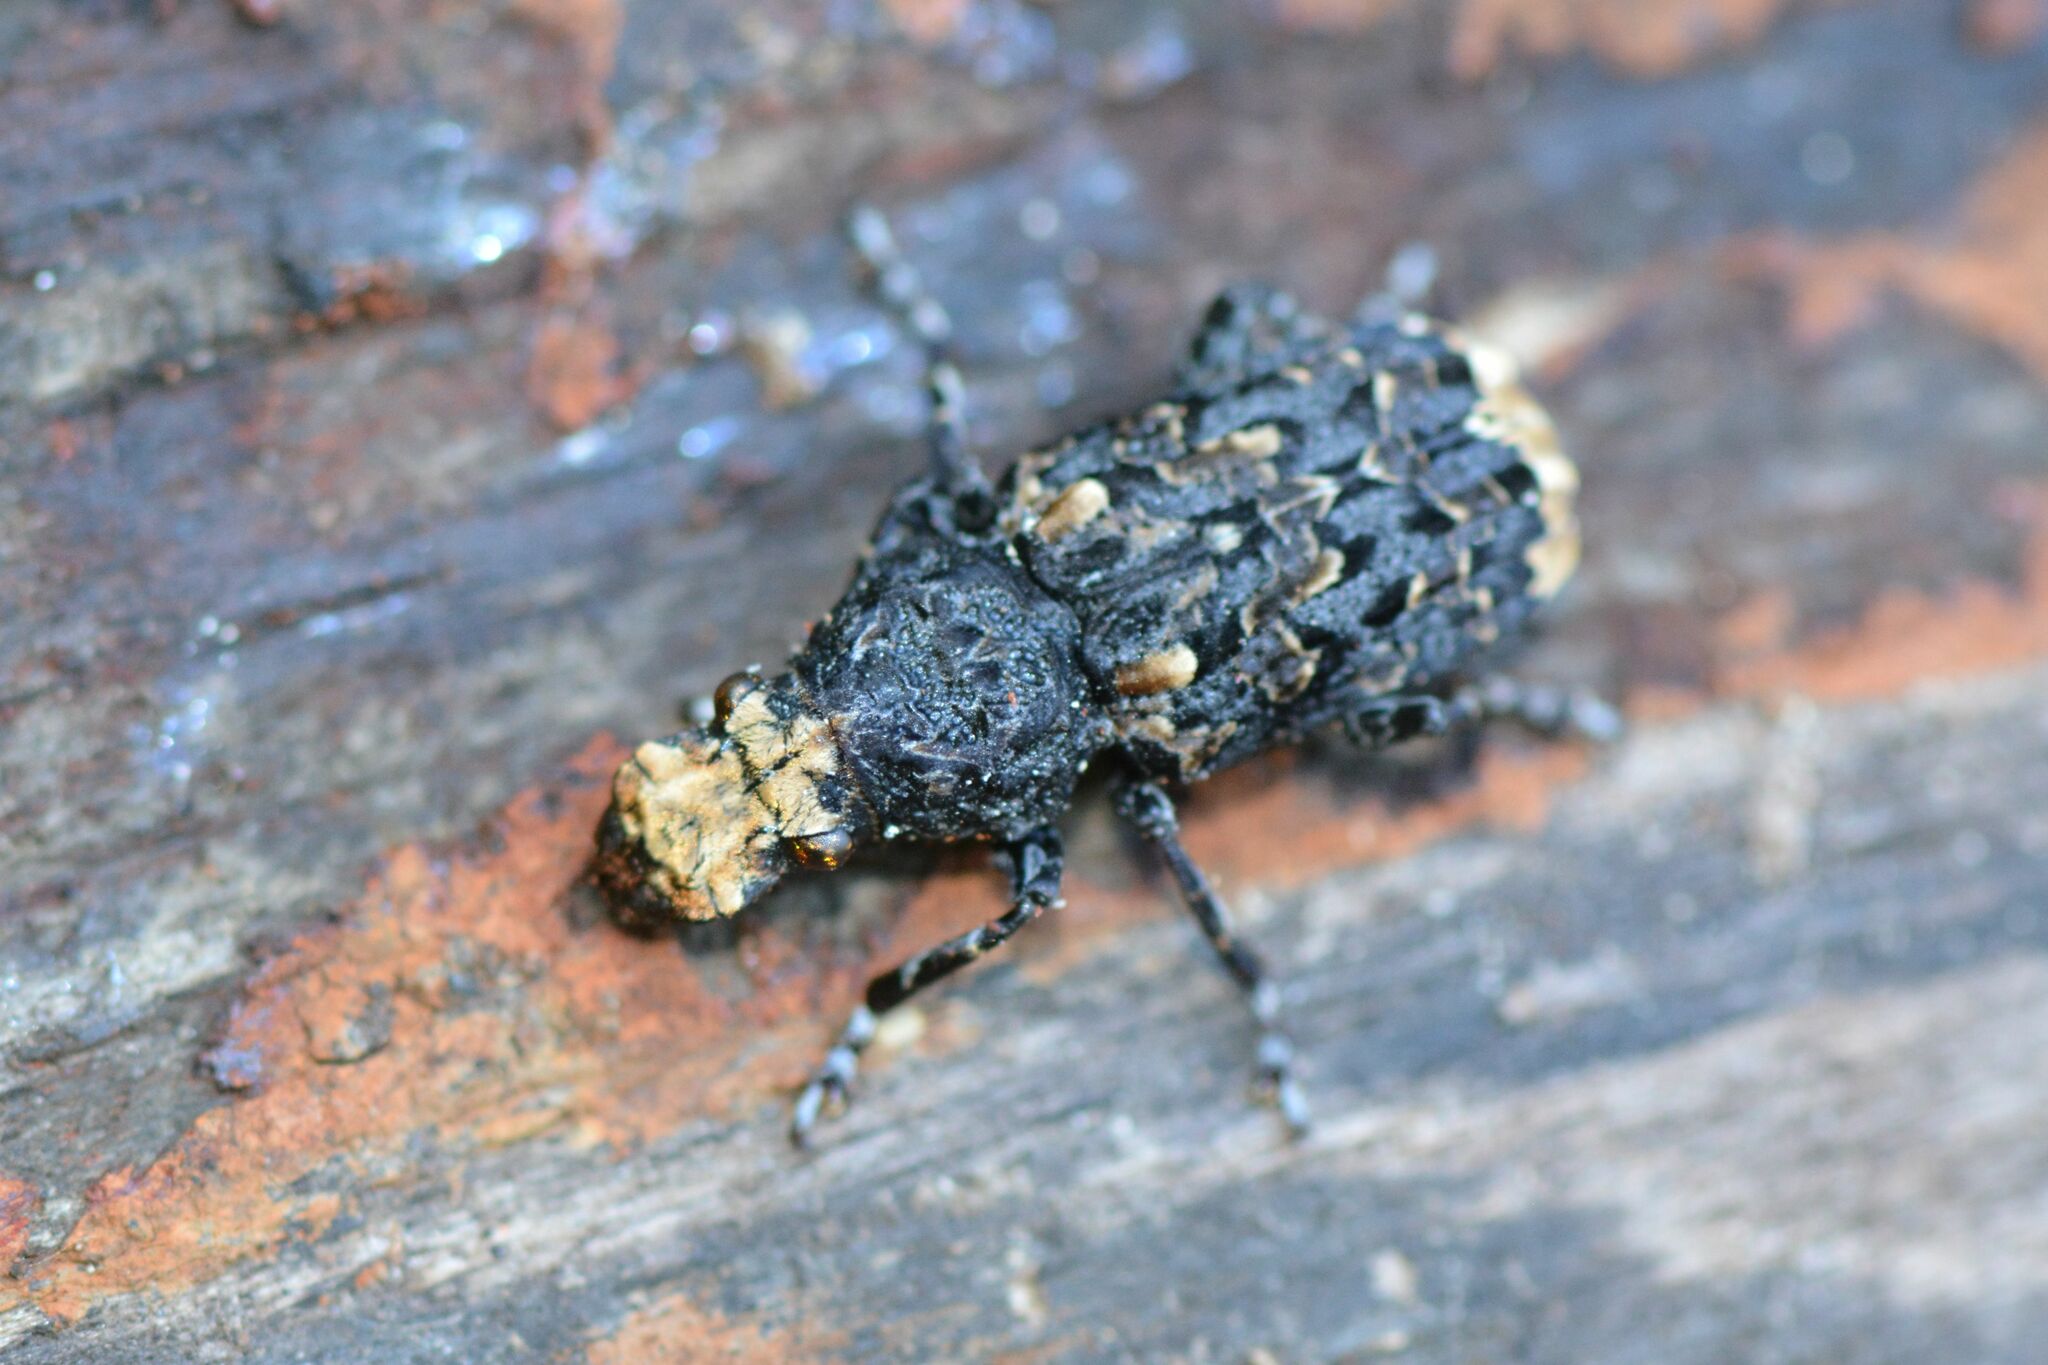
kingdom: Animalia
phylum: Arthropoda
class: Insecta
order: Coleoptera
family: Anthribidae
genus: Platyrhinus
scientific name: Platyrhinus resinosus
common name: Cramp-ball fungus weevil
